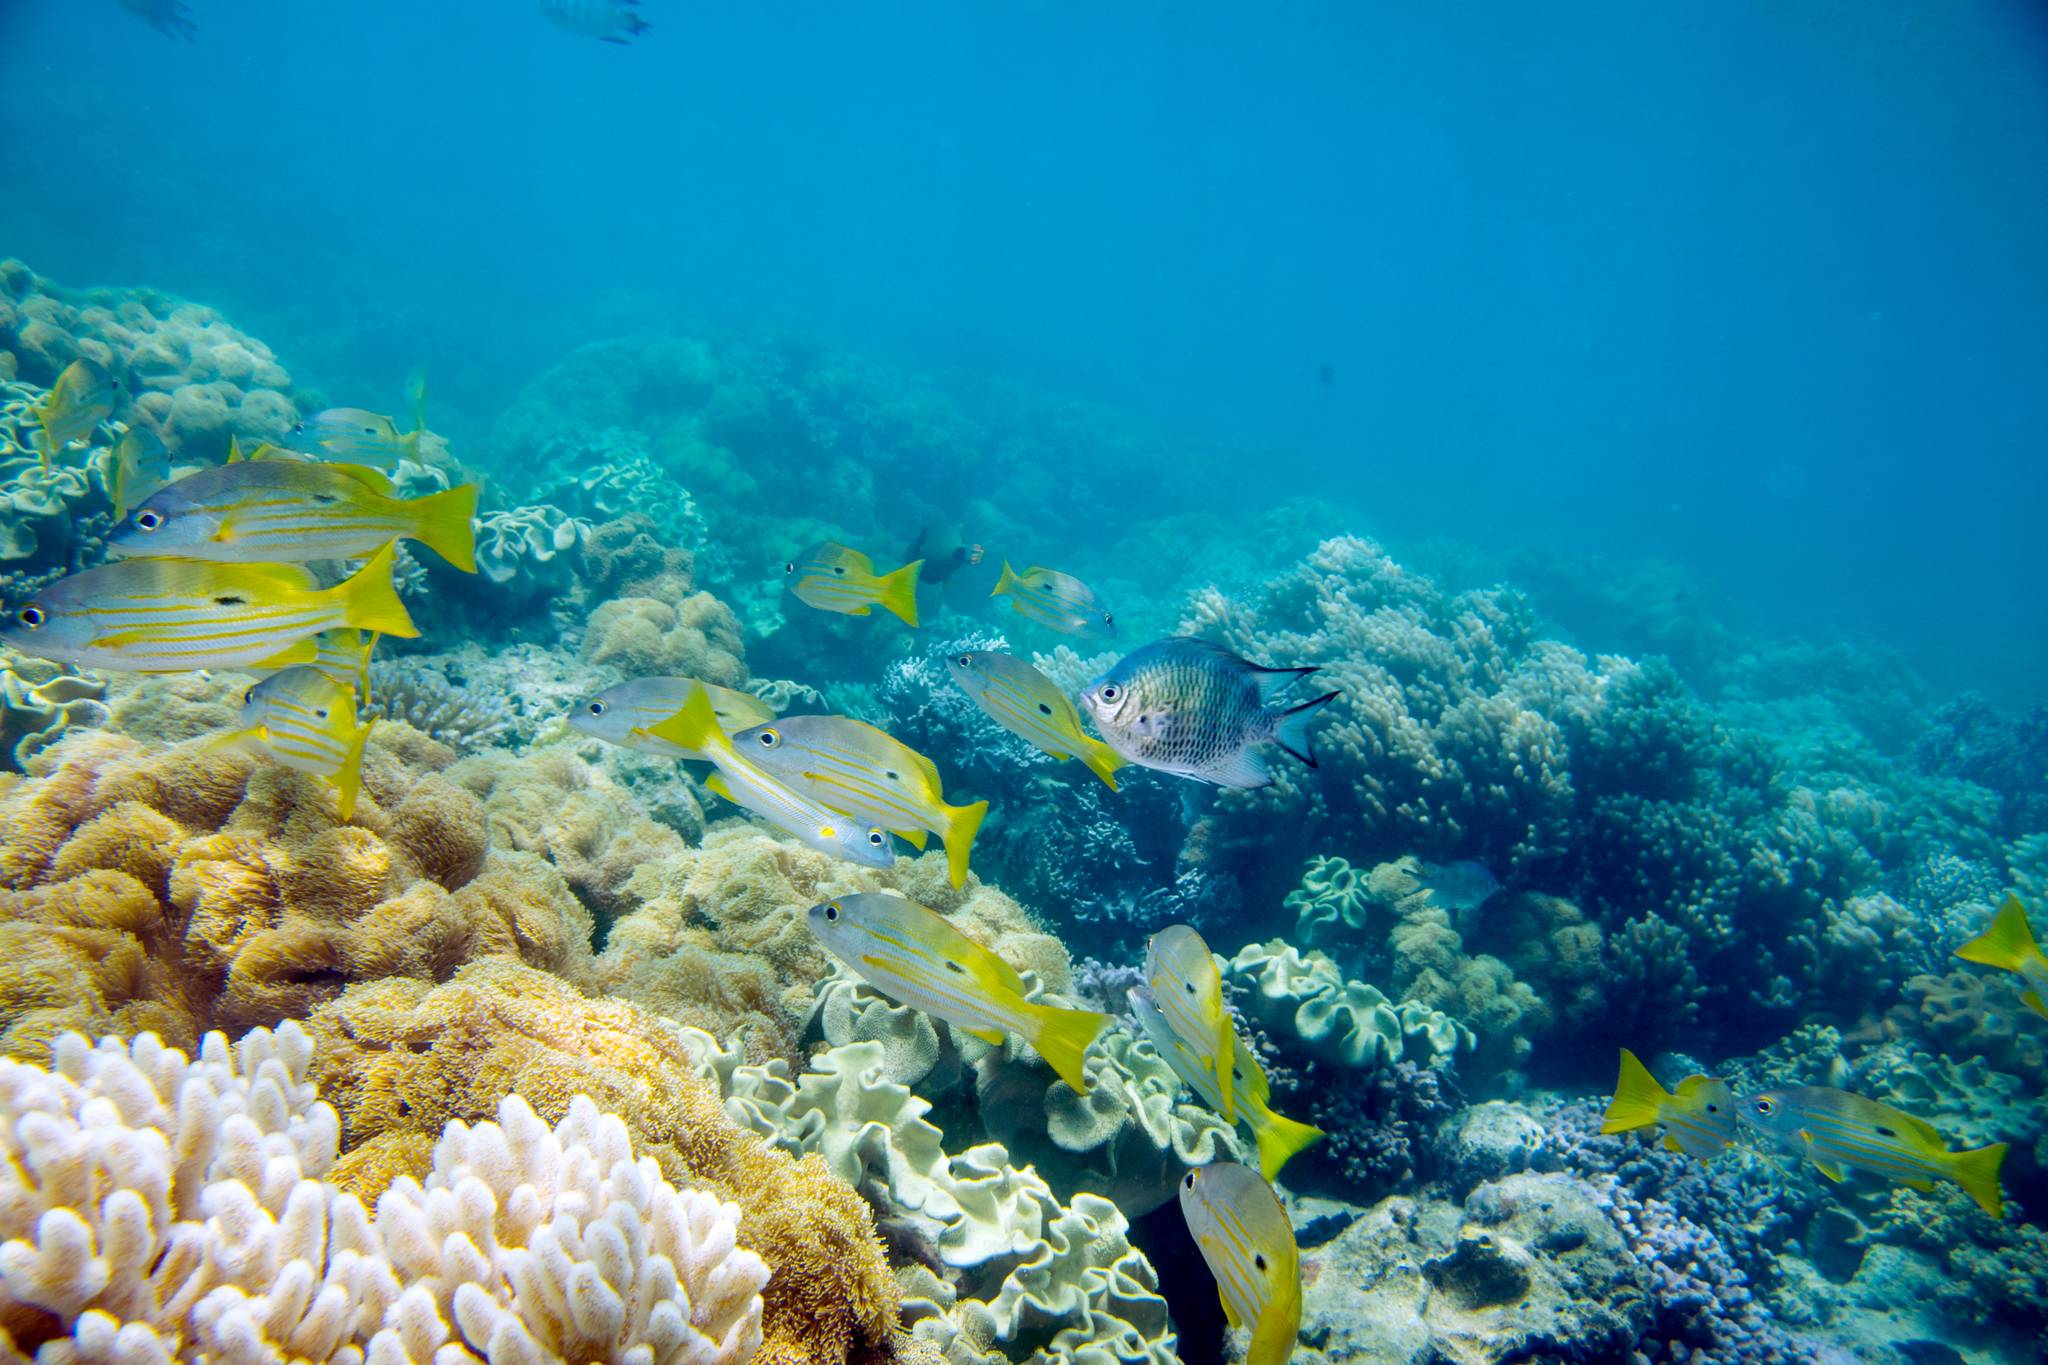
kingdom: Animalia
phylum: Chordata
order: Perciformes
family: Lutjanidae
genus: Lutjanus
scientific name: Lutjanus fulviflamma
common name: Blackspot snapper
